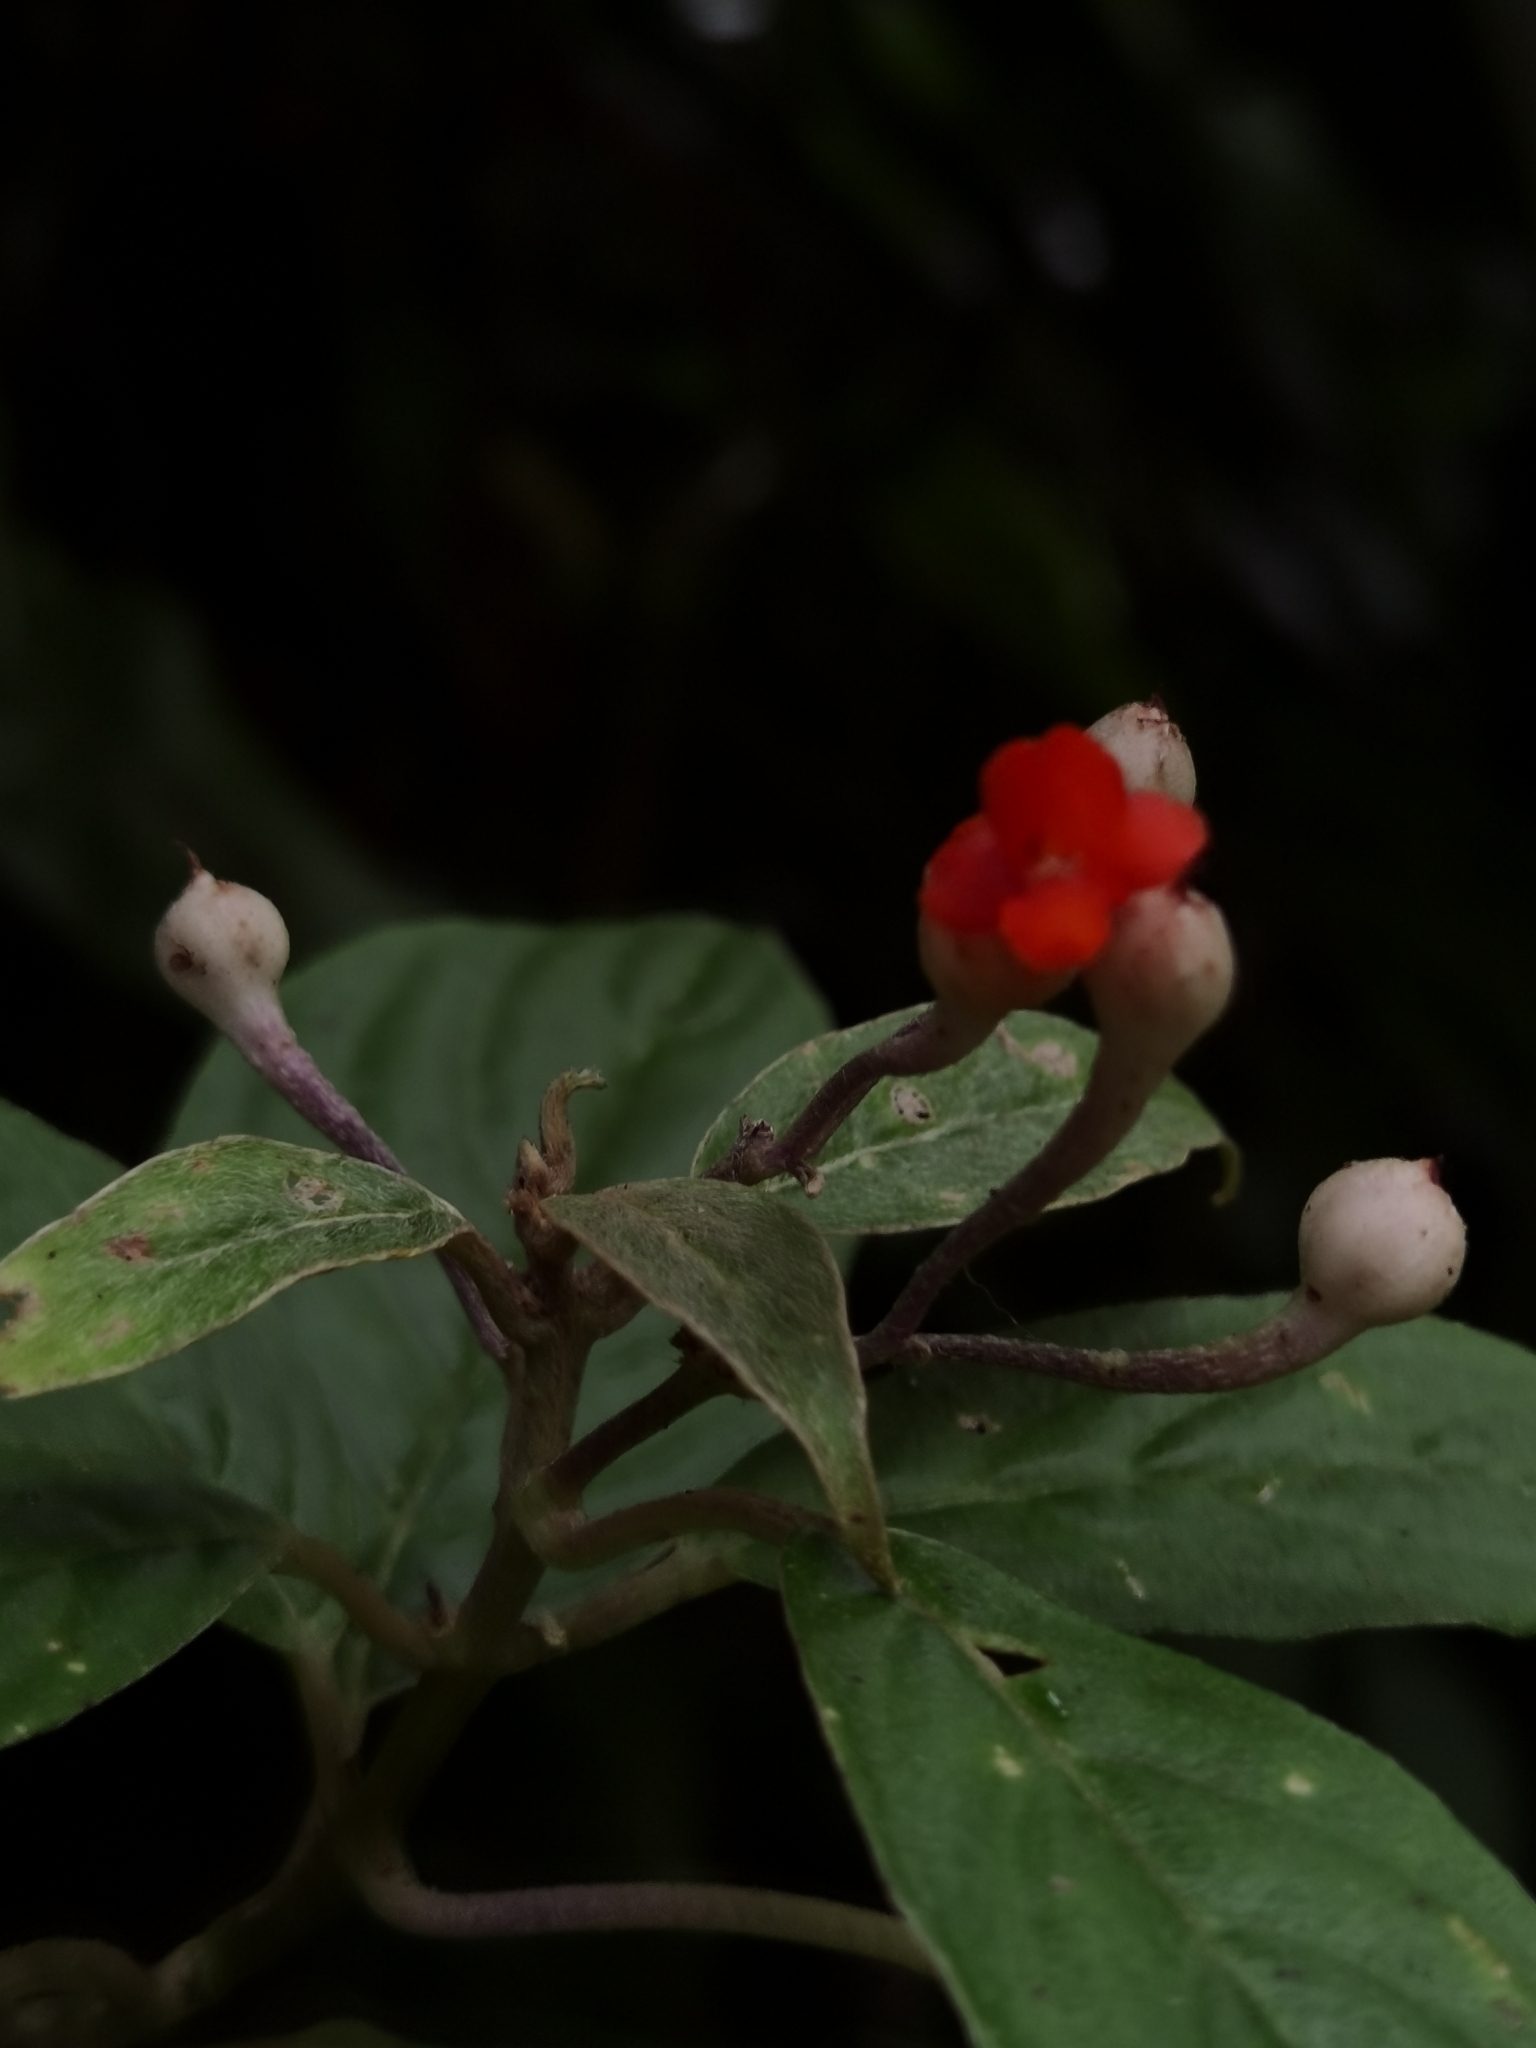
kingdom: Plantae
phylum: Tracheophyta
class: Magnoliopsida
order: Lamiales
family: Gesneriaceae
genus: Besleria
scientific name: Besleria triflora
